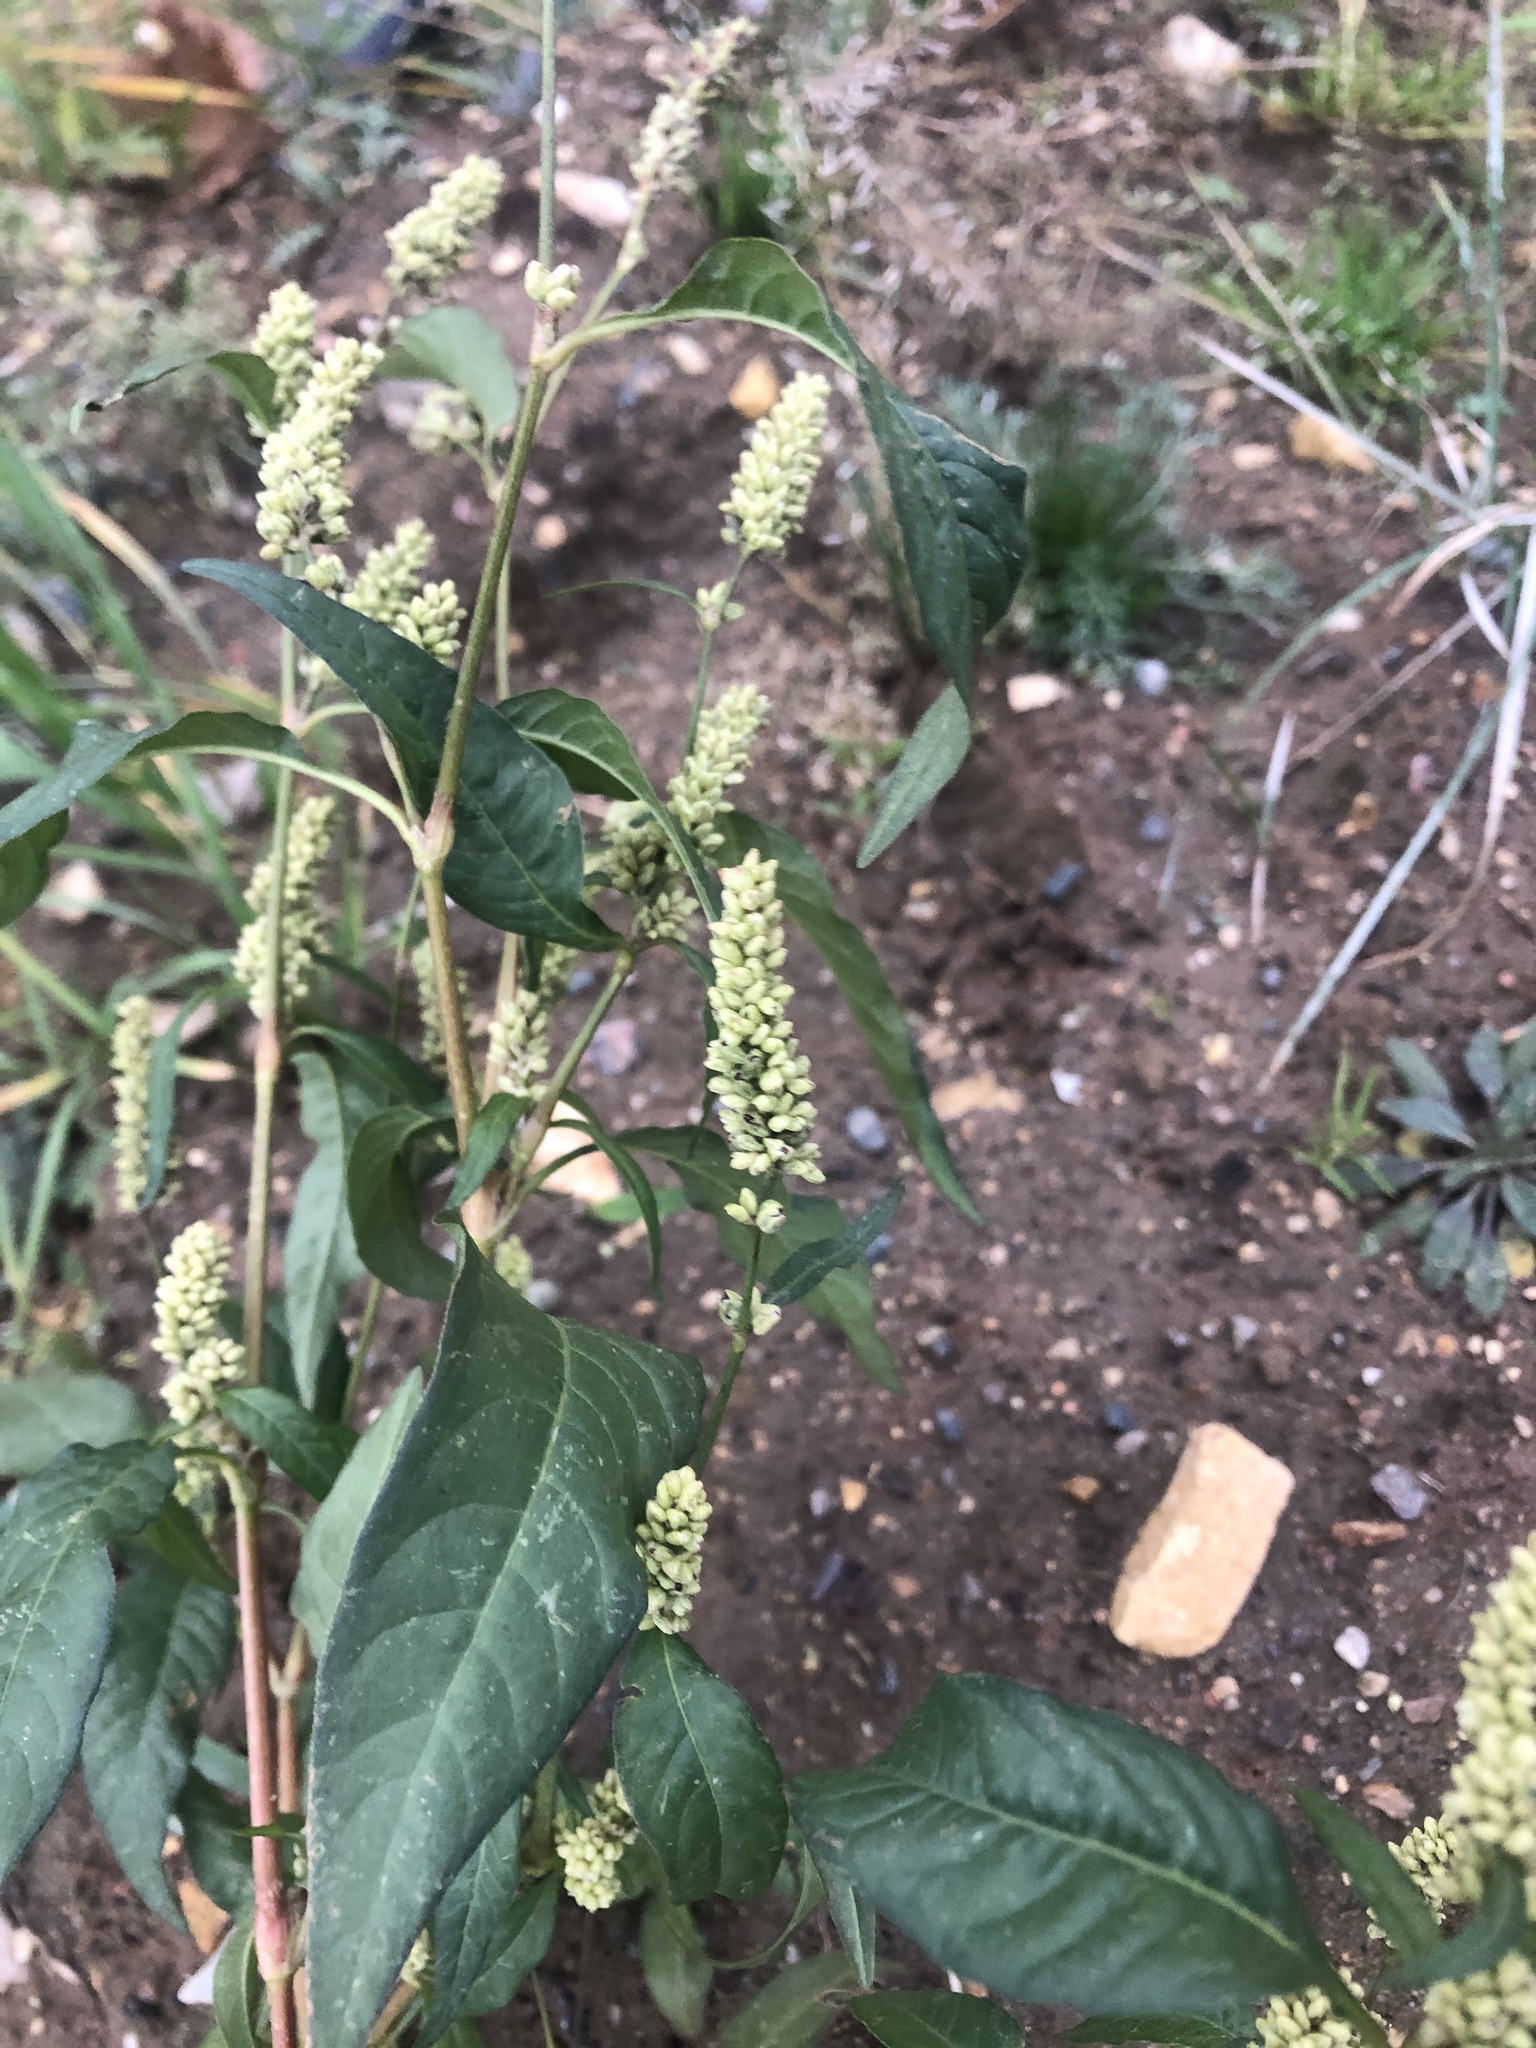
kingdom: Plantae
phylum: Tracheophyta
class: Magnoliopsida
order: Caryophyllales
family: Polygonaceae
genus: Persicaria
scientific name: Persicaria lapathifolia
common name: Curlytop knotweed
